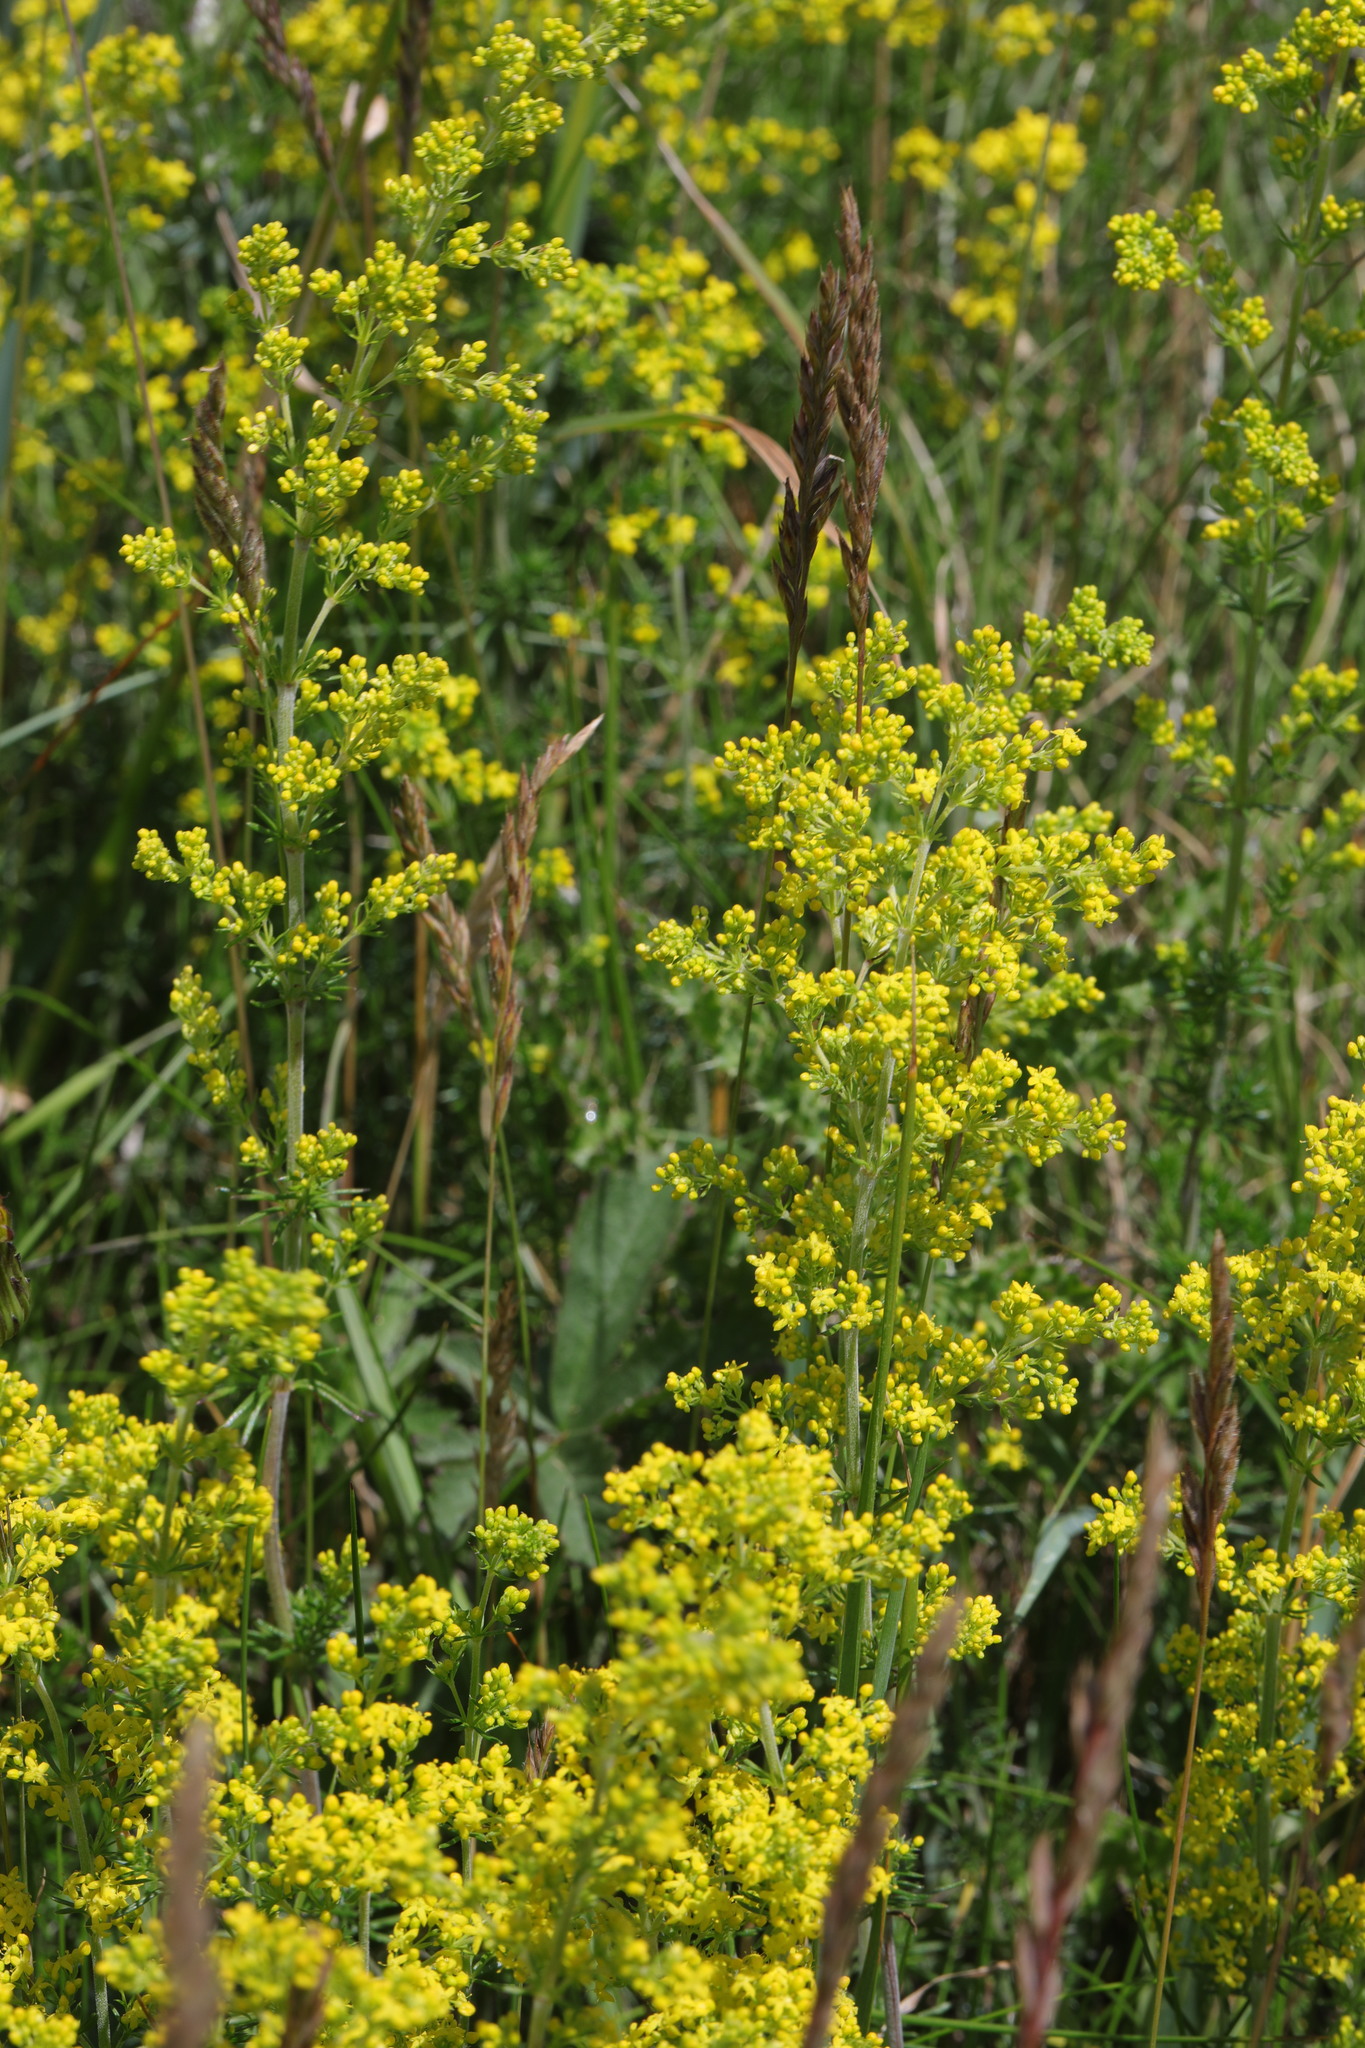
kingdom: Plantae
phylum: Tracheophyta
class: Magnoliopsida
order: Gentianales
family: Rubiaceae
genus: Galium
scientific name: Galium verum
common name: Lady's bedstraw
